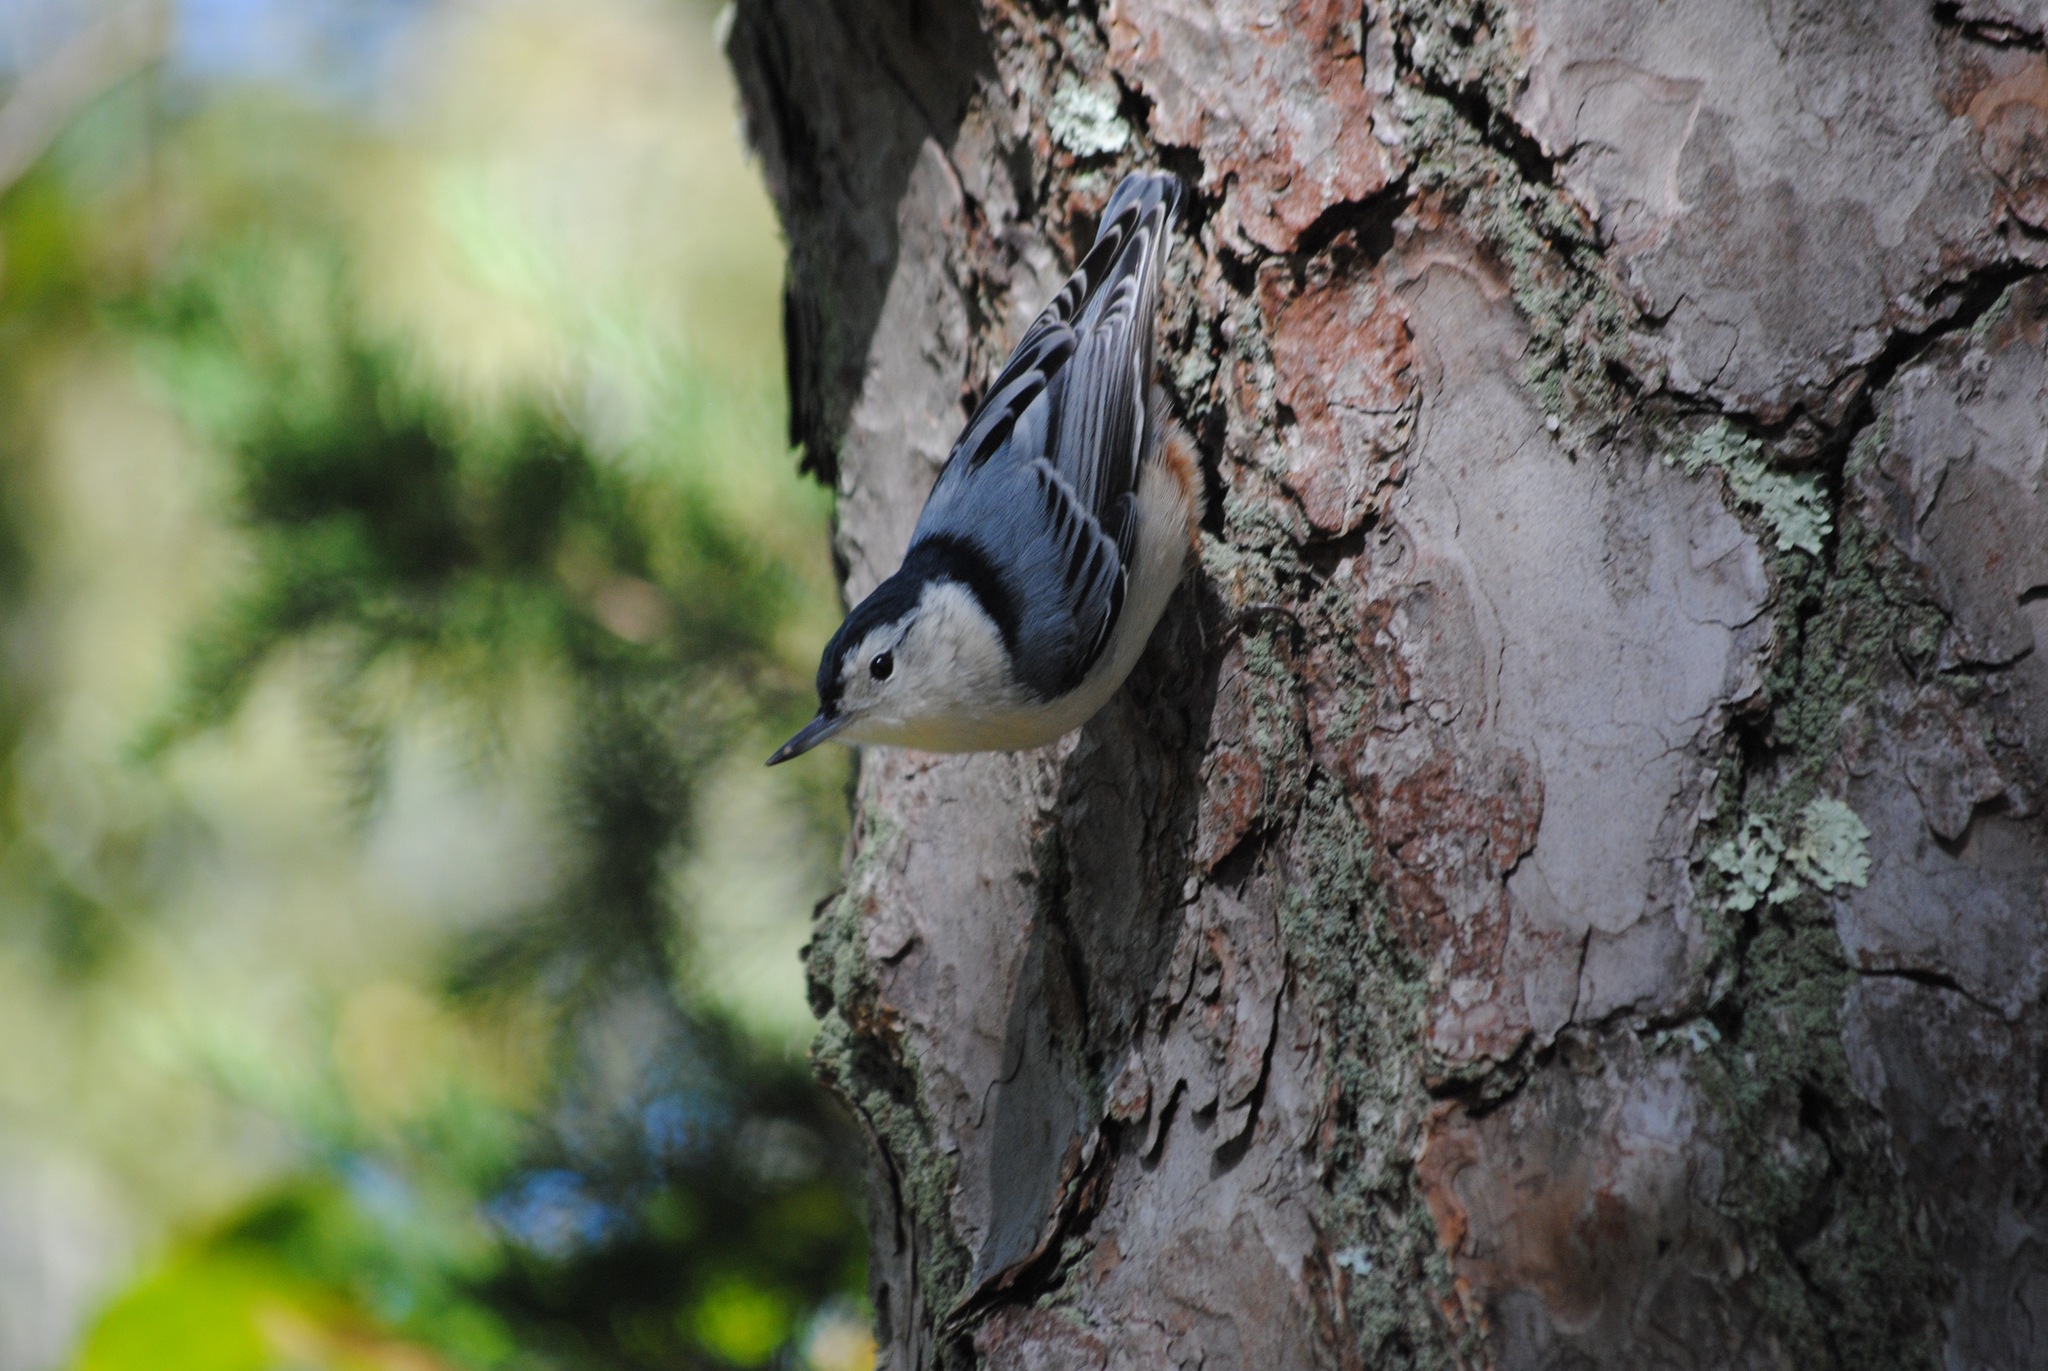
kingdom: Animalia
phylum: Chordata
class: Aves
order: Passeriformes
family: Sittidae
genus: Sitta
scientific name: Sitta carolinensis
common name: White-breasted nuthatch
